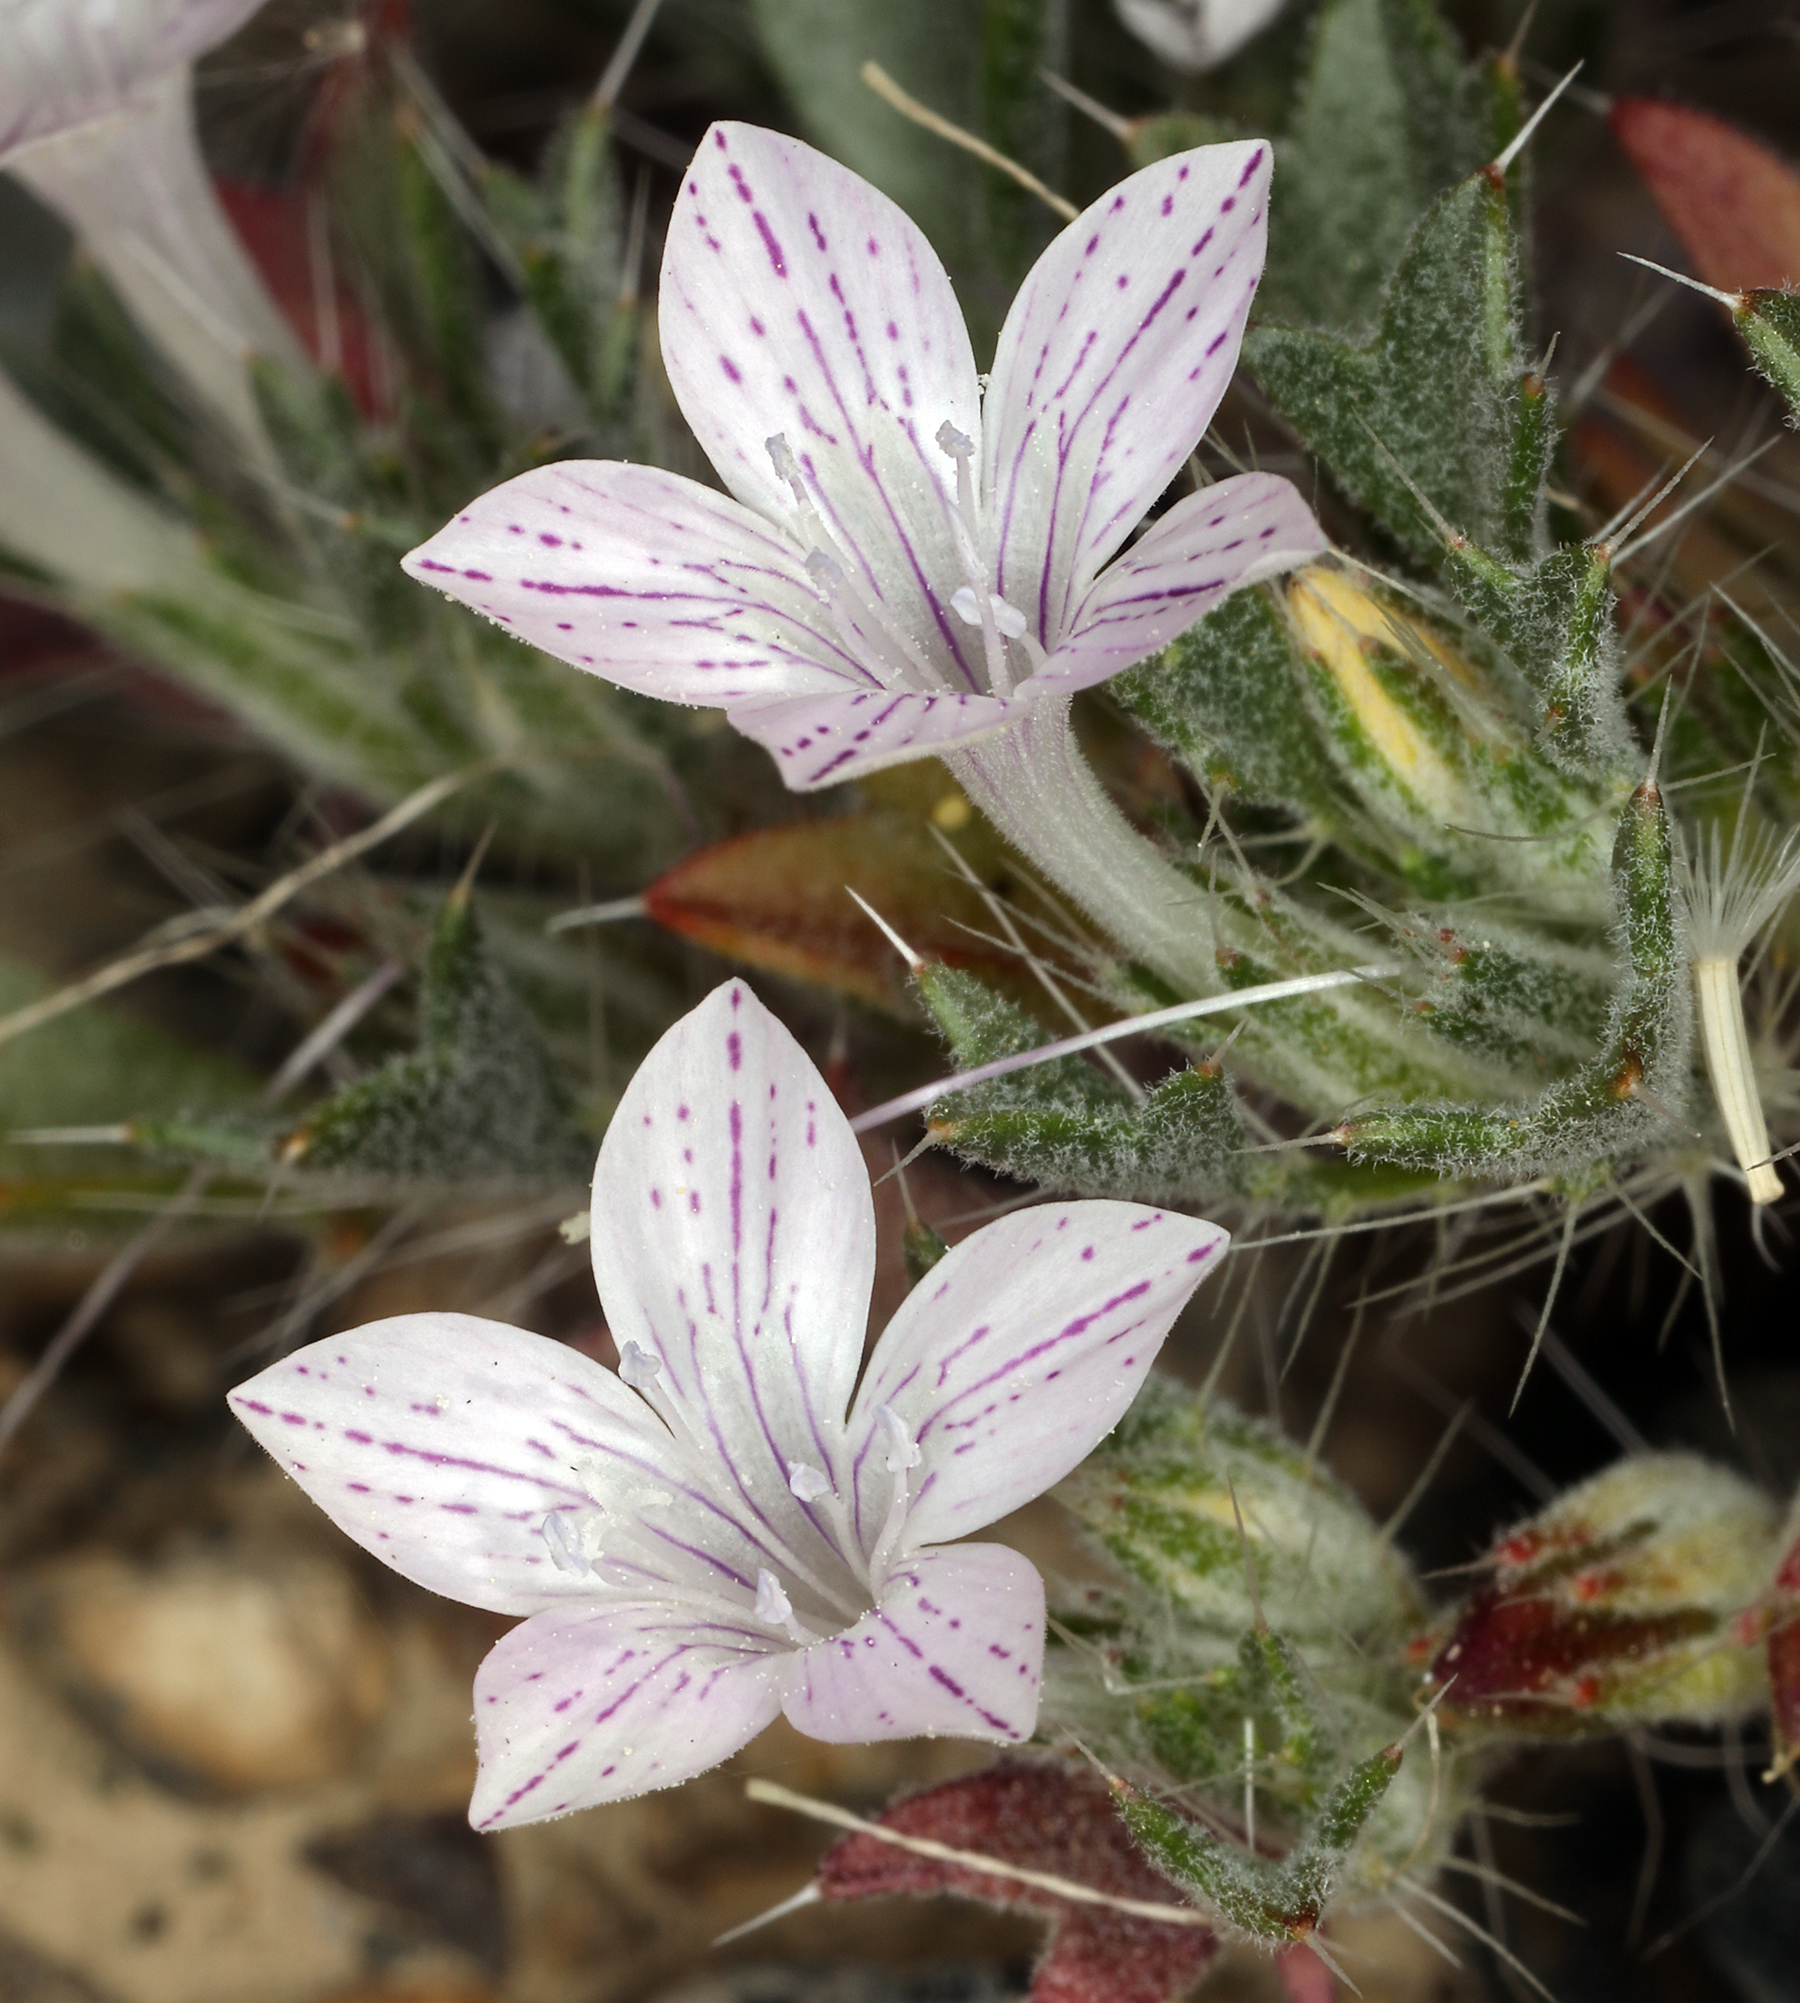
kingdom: Plantae
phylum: Tracheophyta
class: Magnoliopsida
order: Ericales
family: Polemoniaceae
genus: Langloisia
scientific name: Langloisia setosissima
